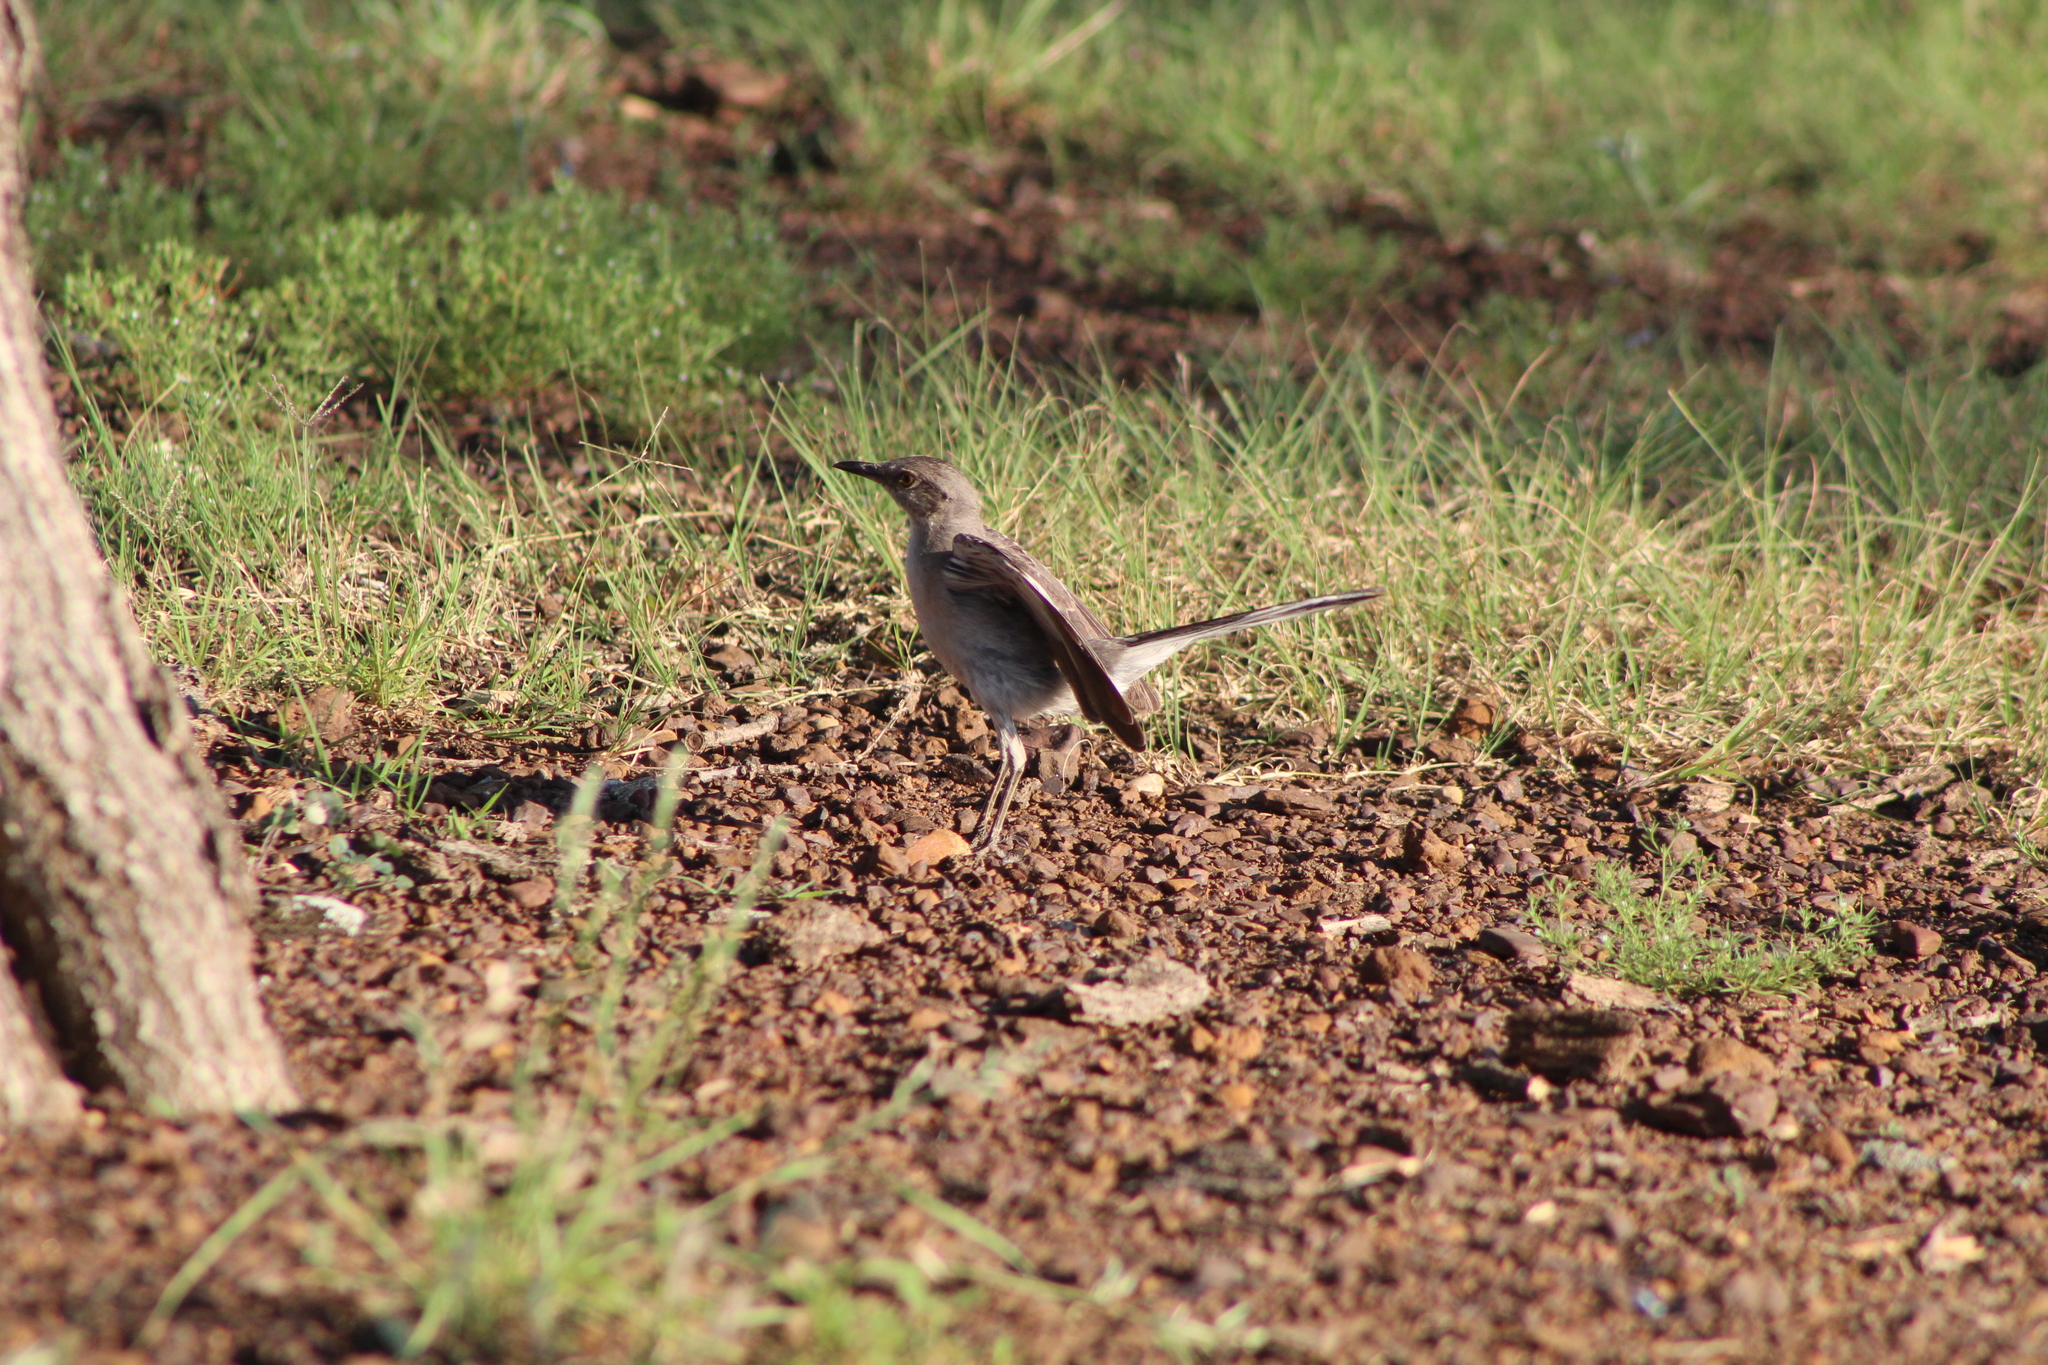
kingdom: Animalia
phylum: Chordata
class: Aves
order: Passeriformes
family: Mimidae
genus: Mimus
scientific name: Mimus polyglottos
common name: Northern mockingbird
